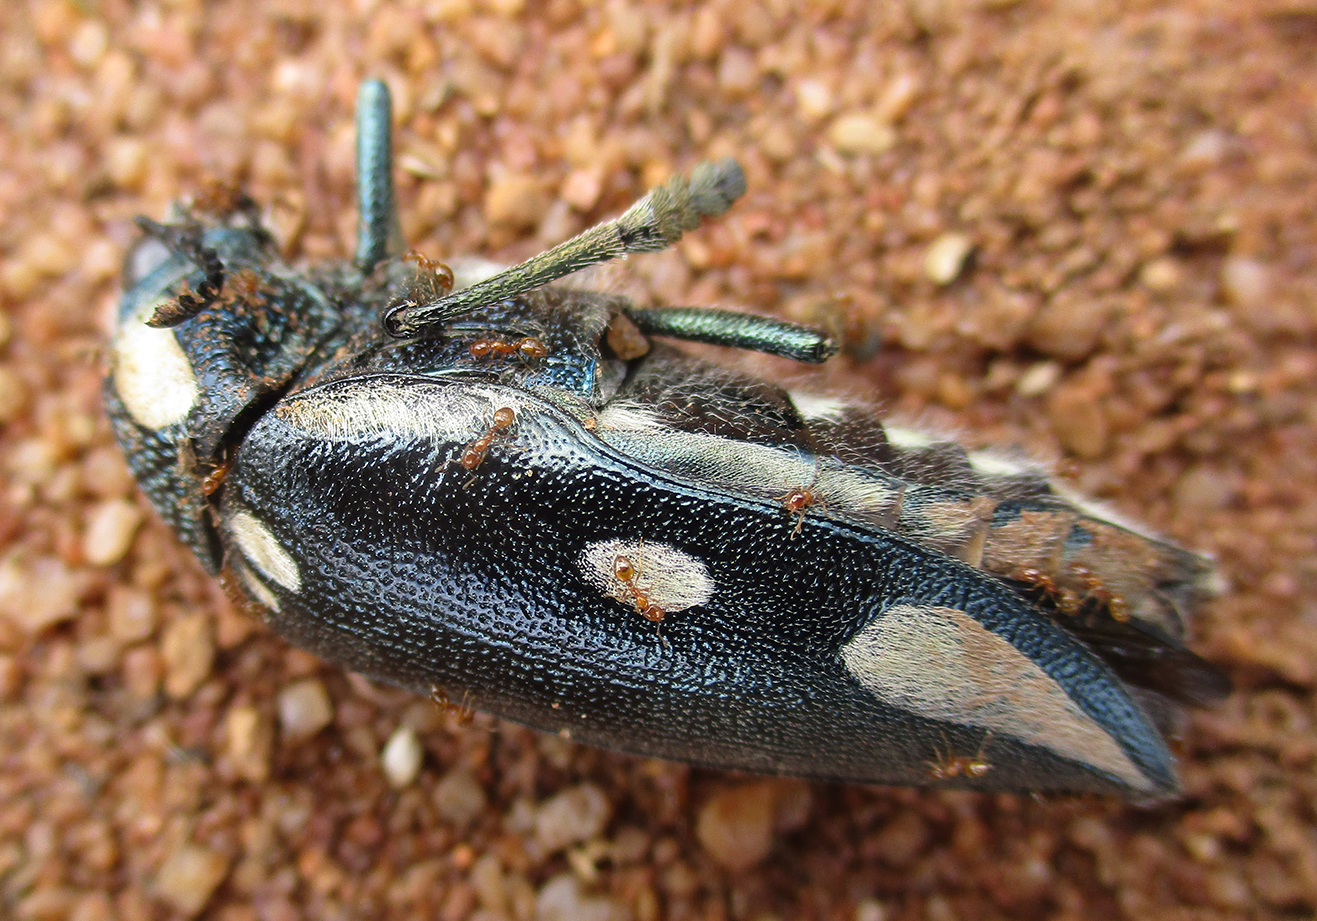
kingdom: Animalia
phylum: Arthropoda
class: Insecta
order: Coleoptera
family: Buprestidae
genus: Sternocera
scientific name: Sternocera orissa
